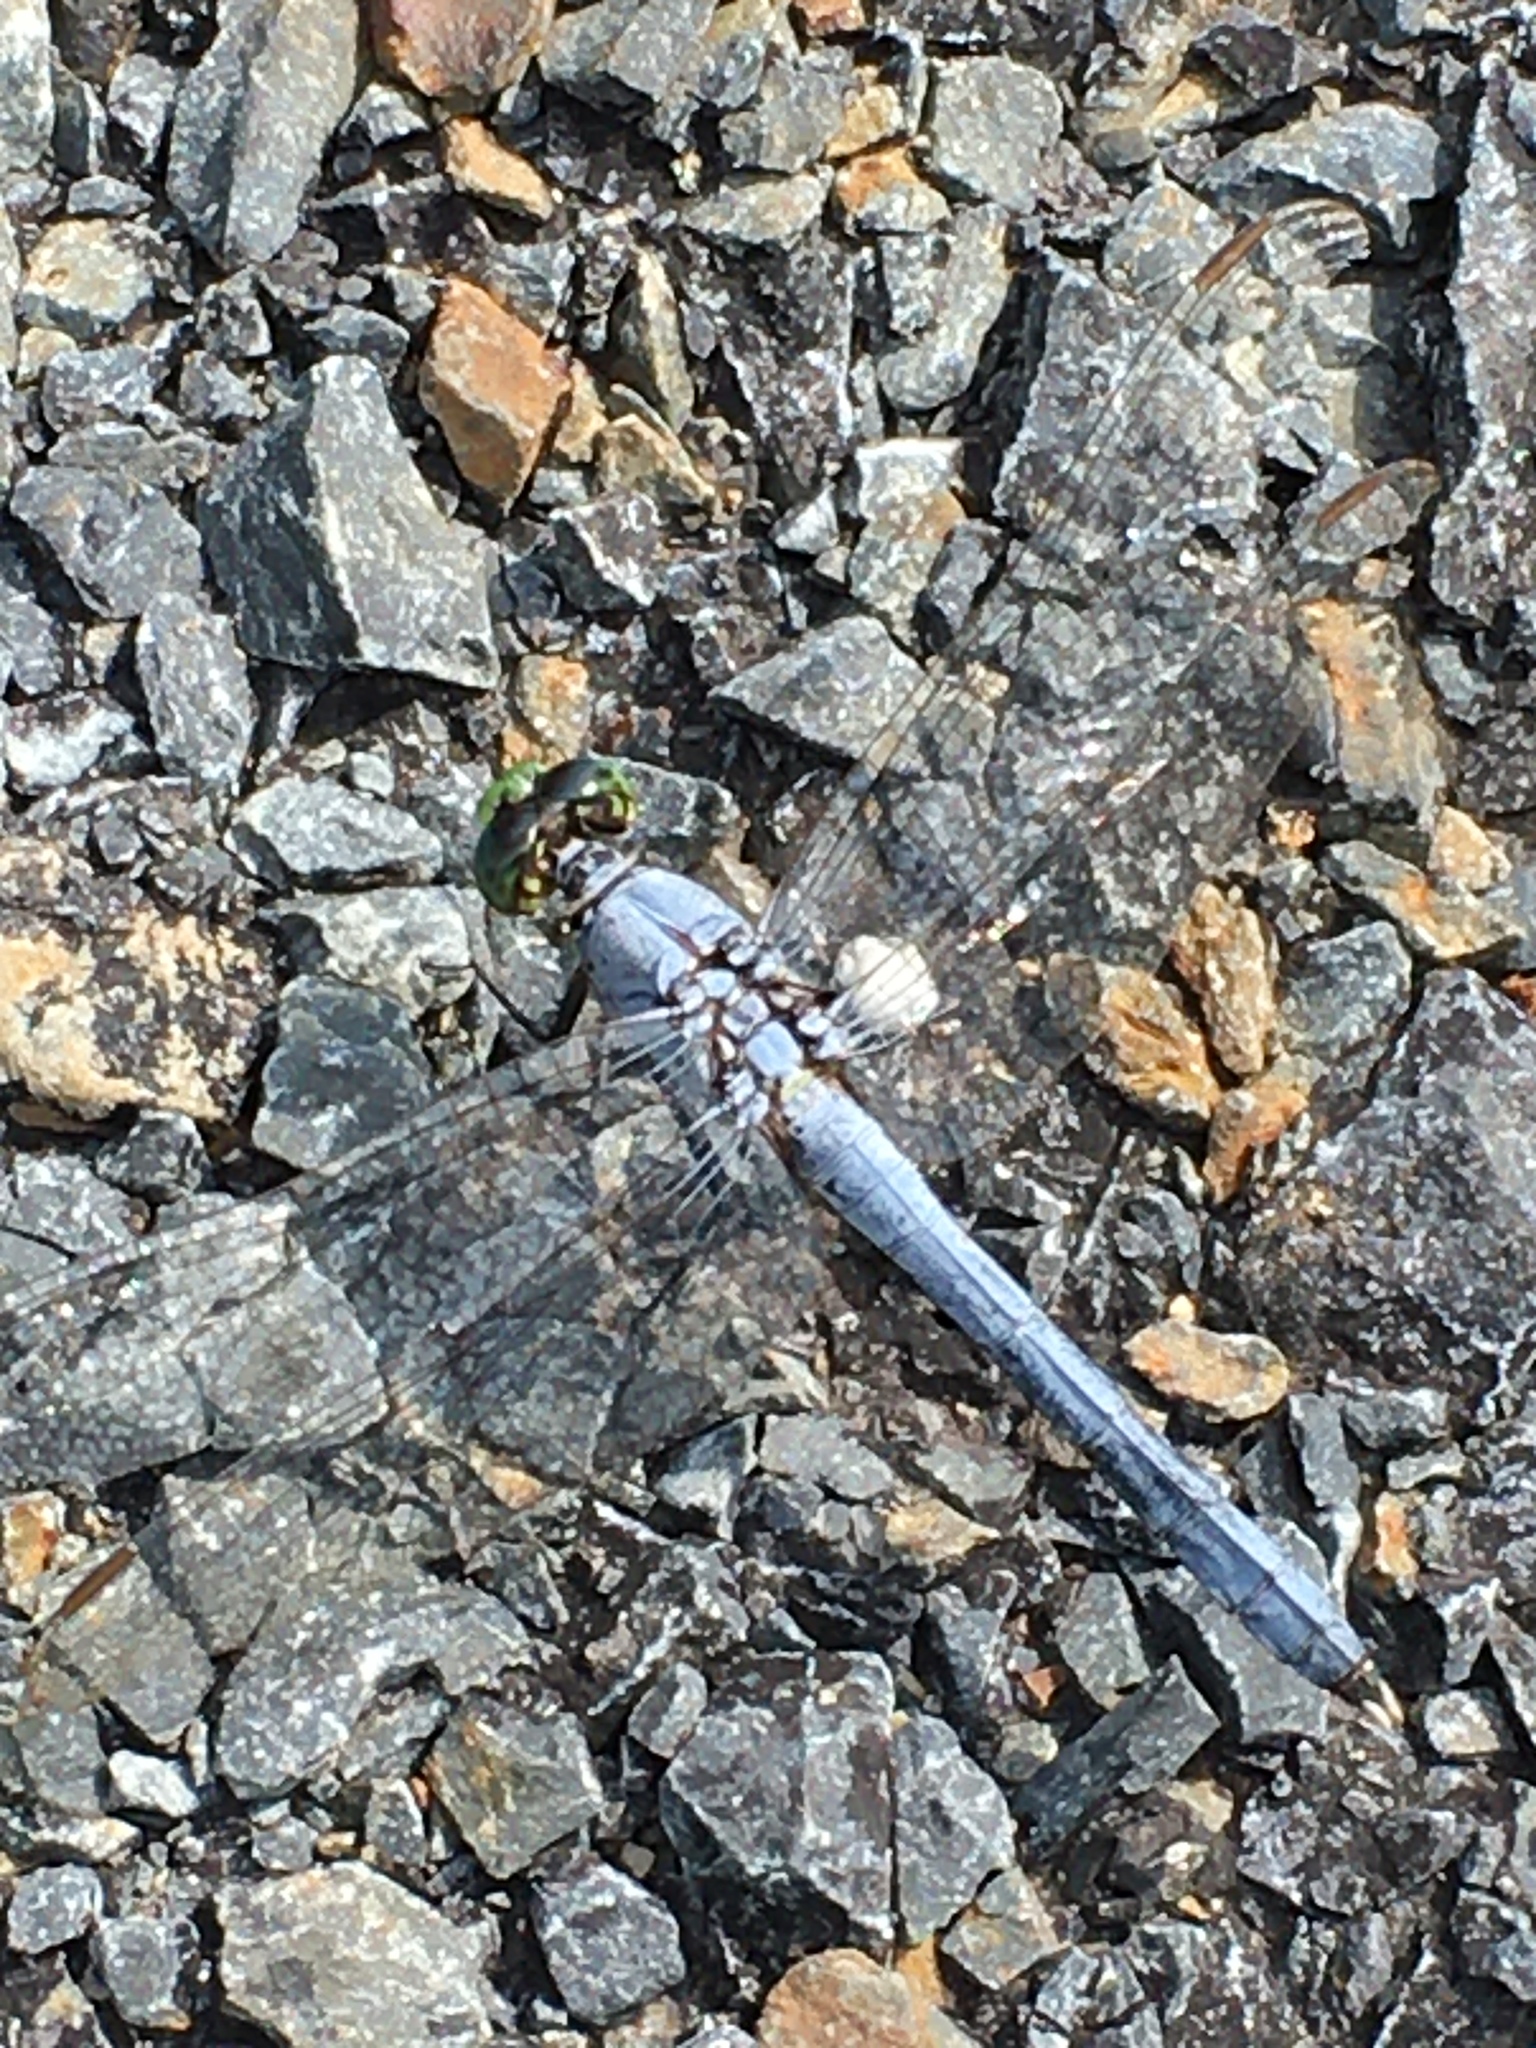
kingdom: Animalia
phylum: Arthropoda
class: Insecta
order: Odonata
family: Libellulidae
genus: Erythemis
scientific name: Erythemis simplicicollis
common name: Eastern pondhawk
